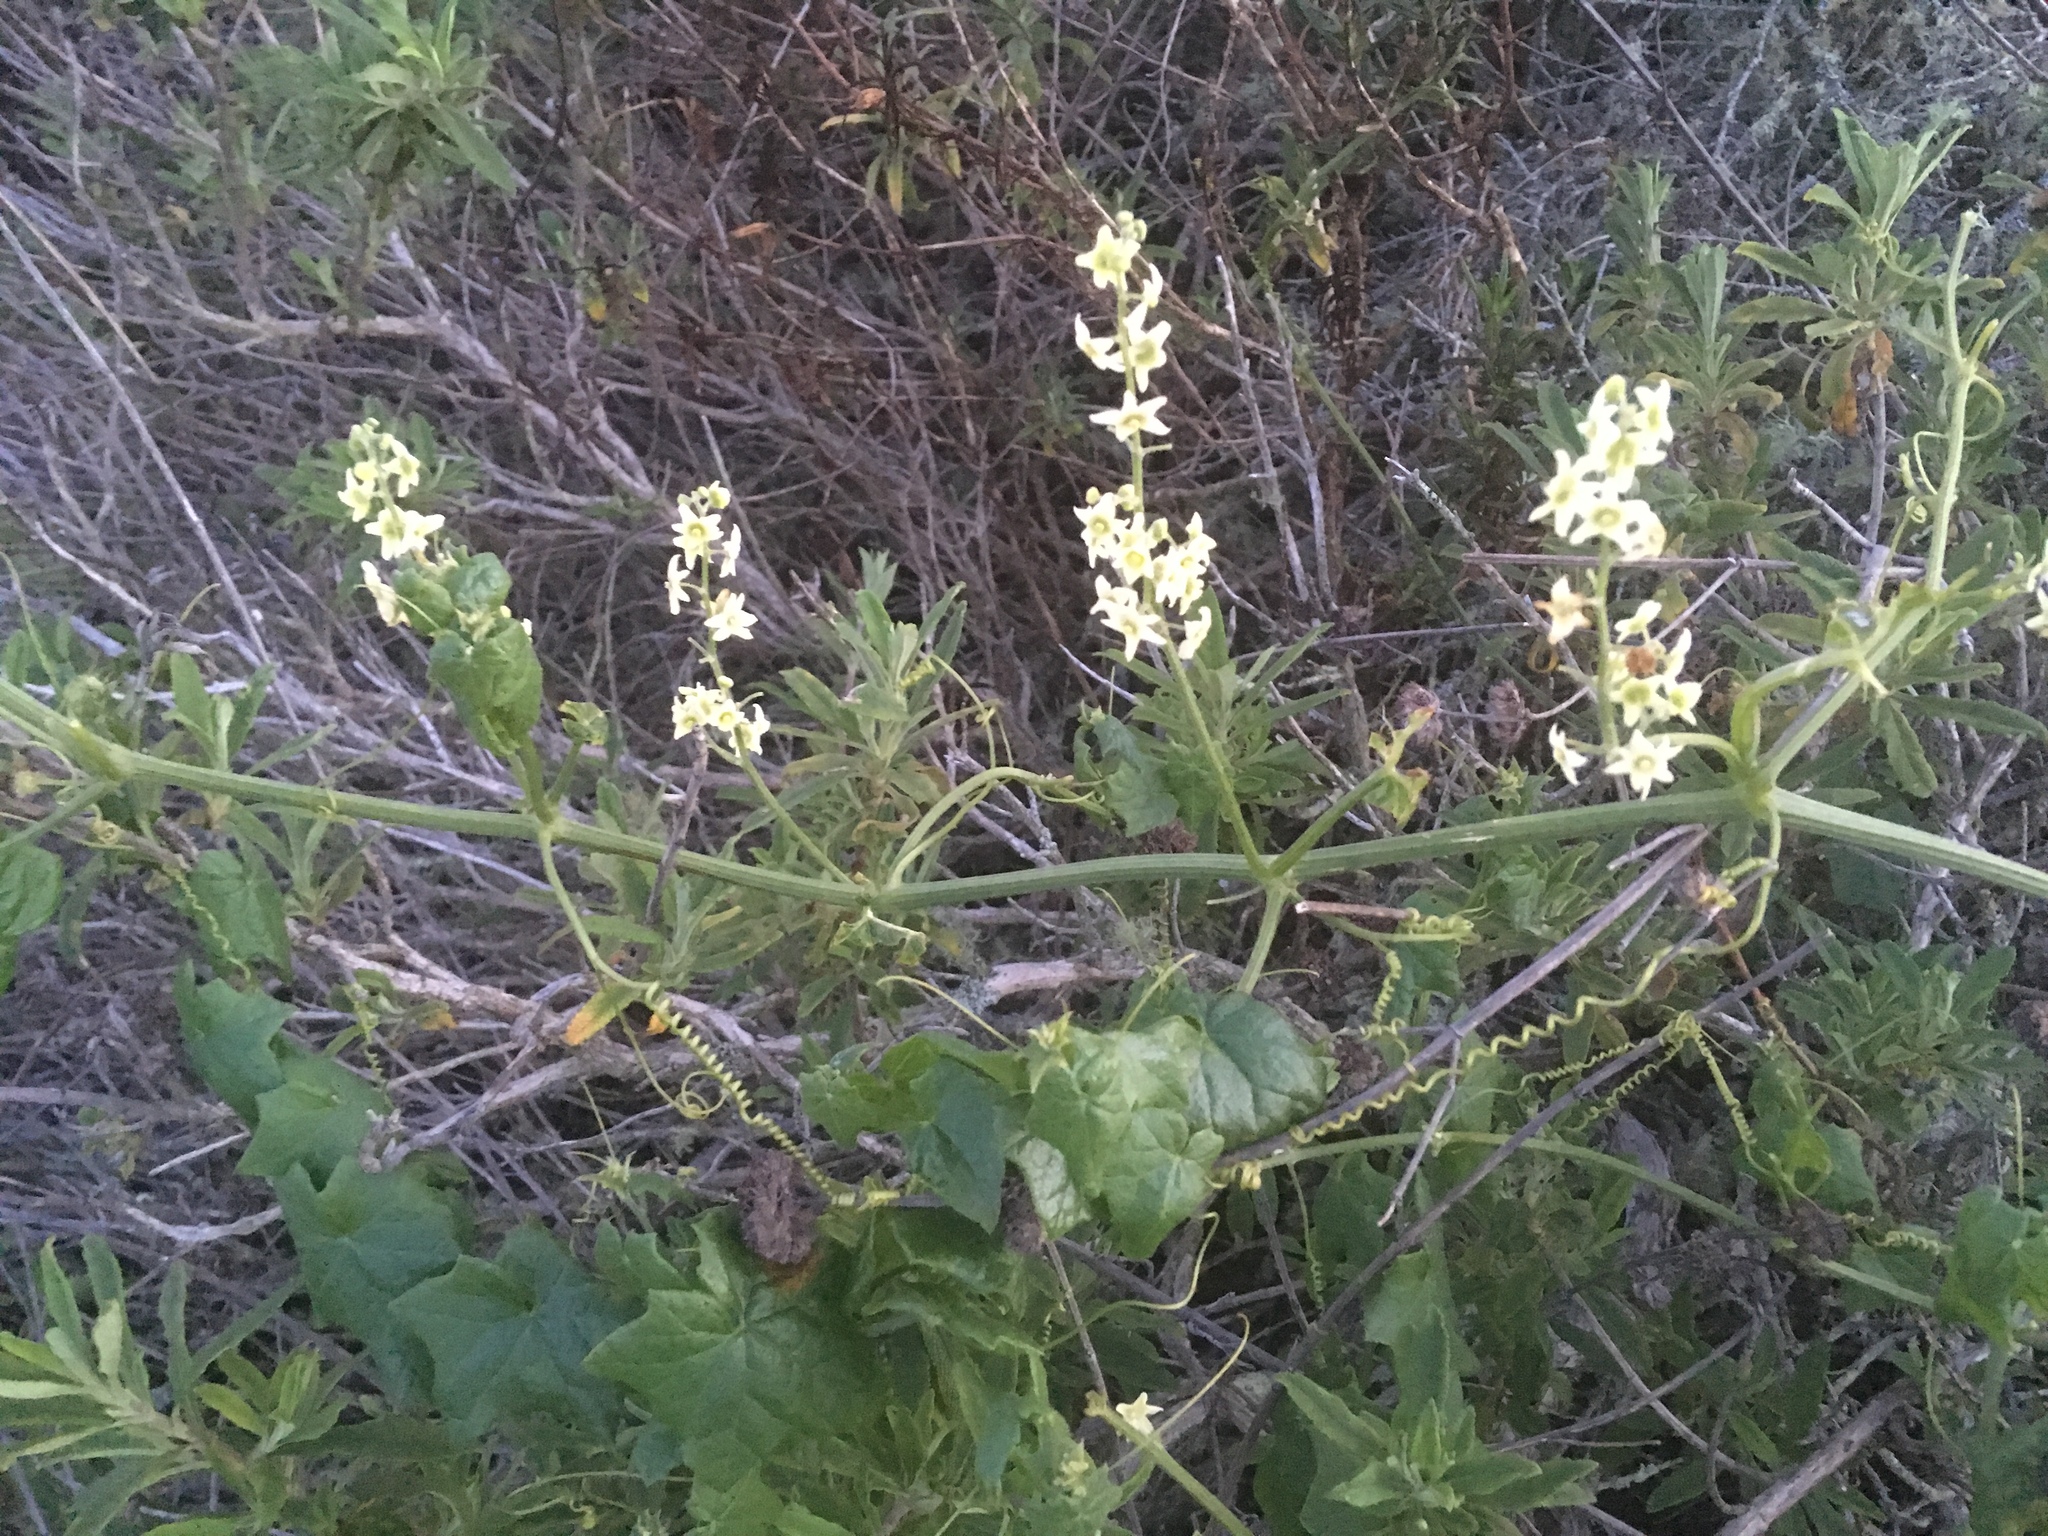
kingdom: Plantae
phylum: Tracheophyta
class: Magnoliopsida
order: Cucurbitales
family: Cucurbitaceae
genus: Marah
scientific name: Marah fabacea
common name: California manroot
